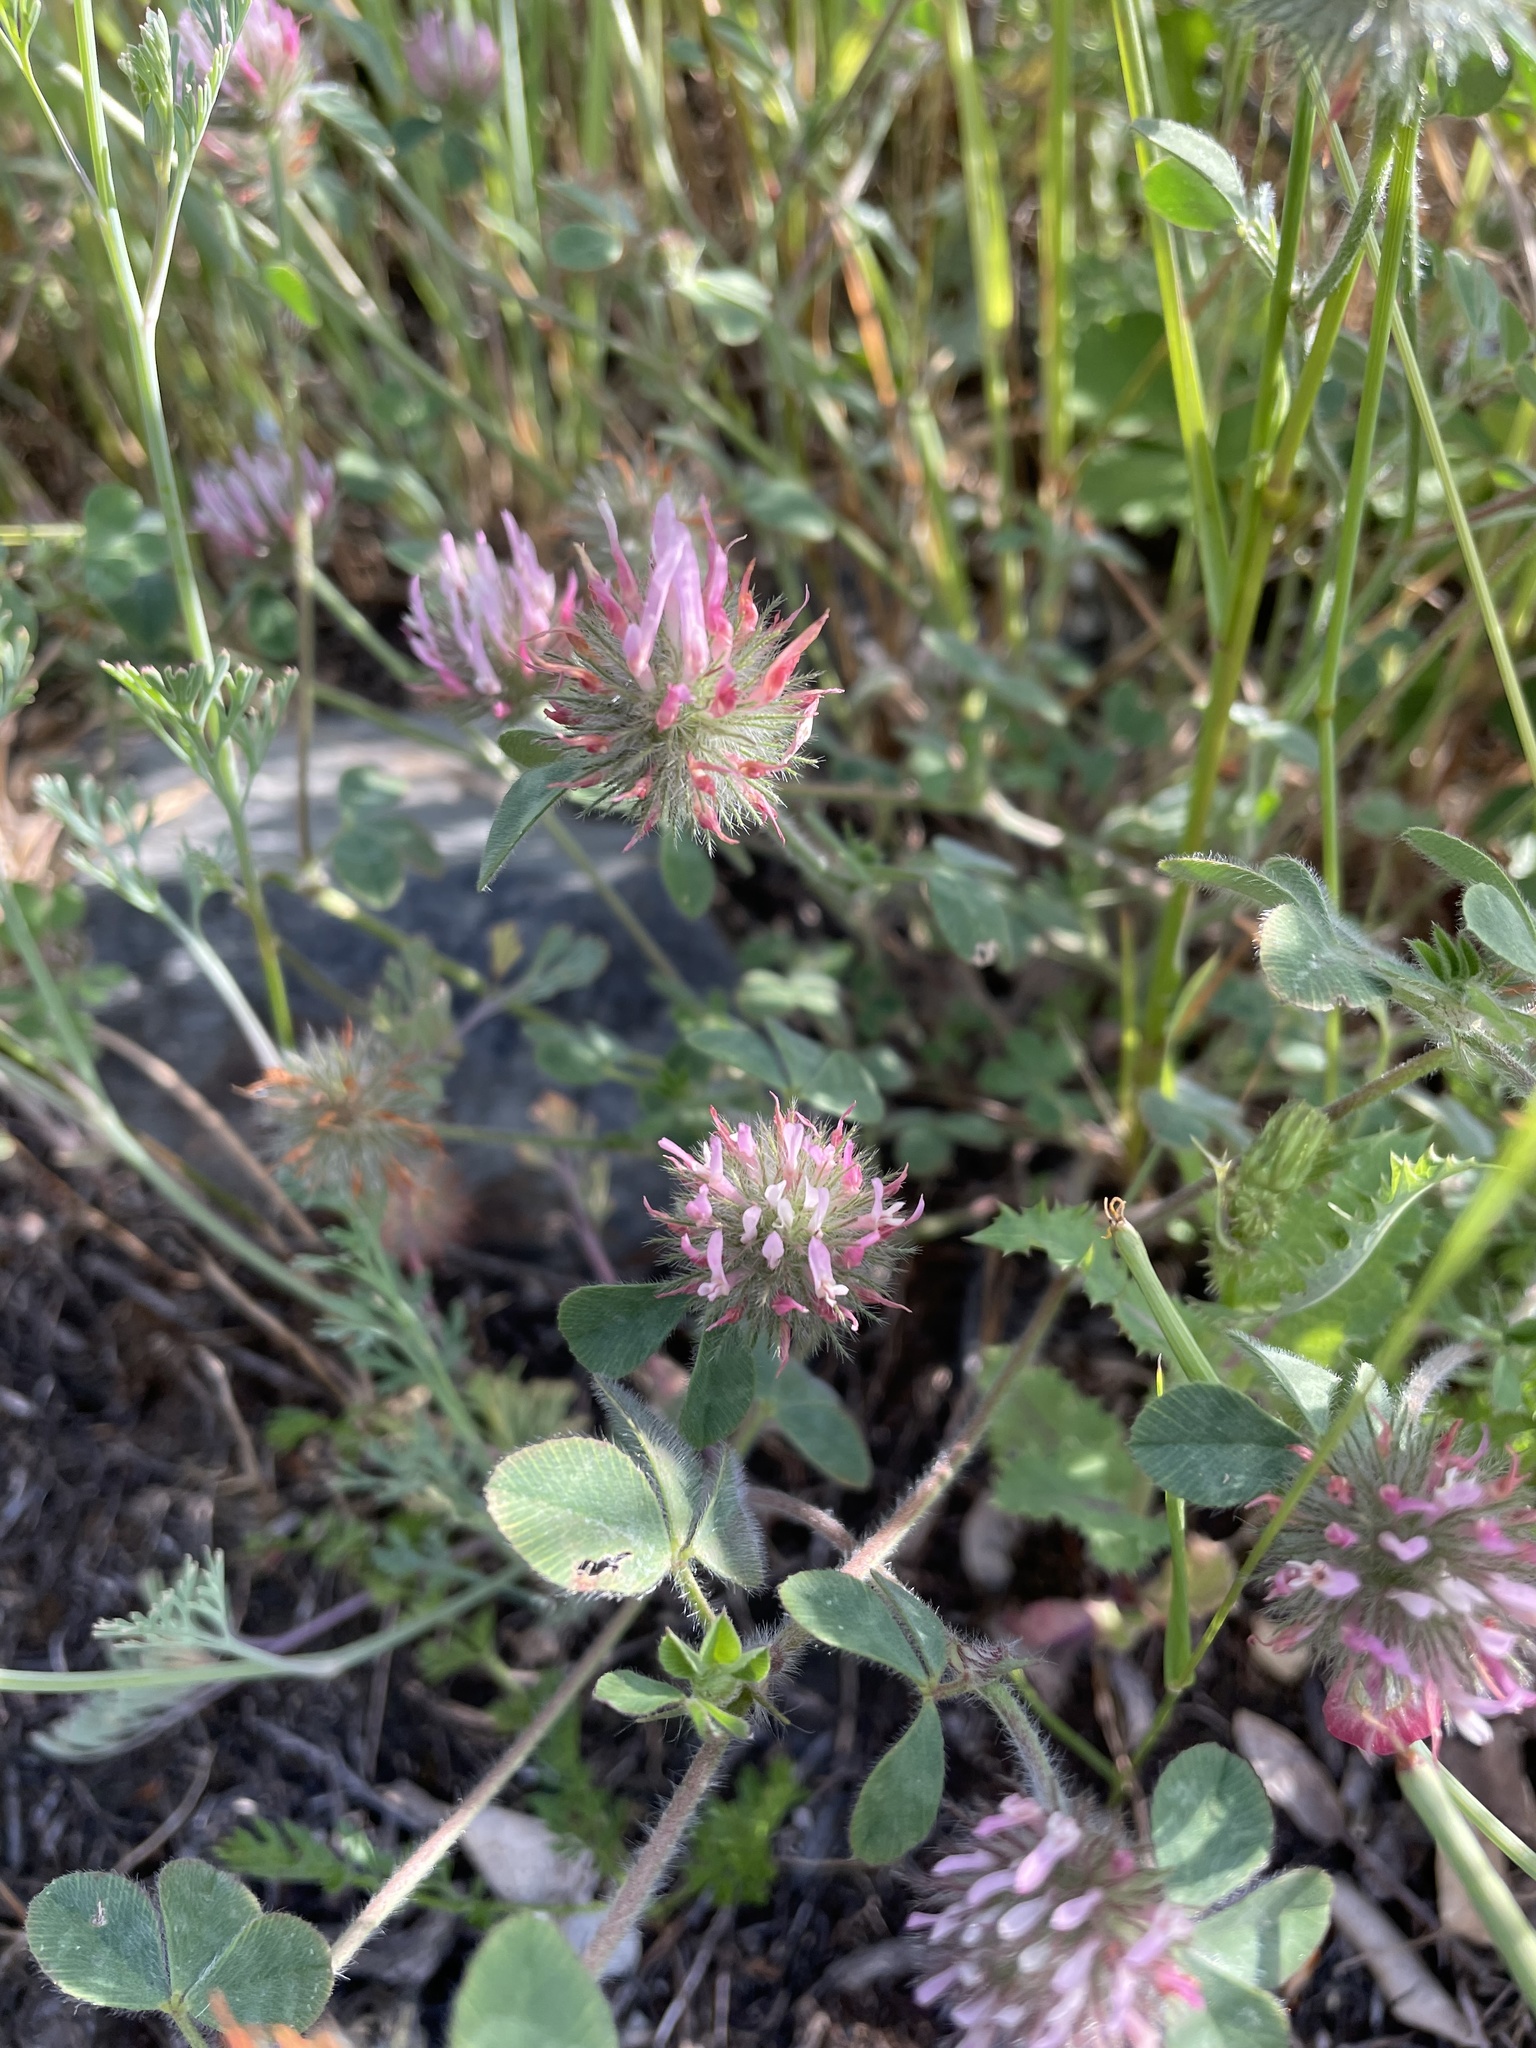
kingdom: Plantae
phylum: Tracheophyta
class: Magnoliopsida
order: Fabales
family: Fabaceae
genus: Trifolium
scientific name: Trifolium hirtum
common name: Rose clover
